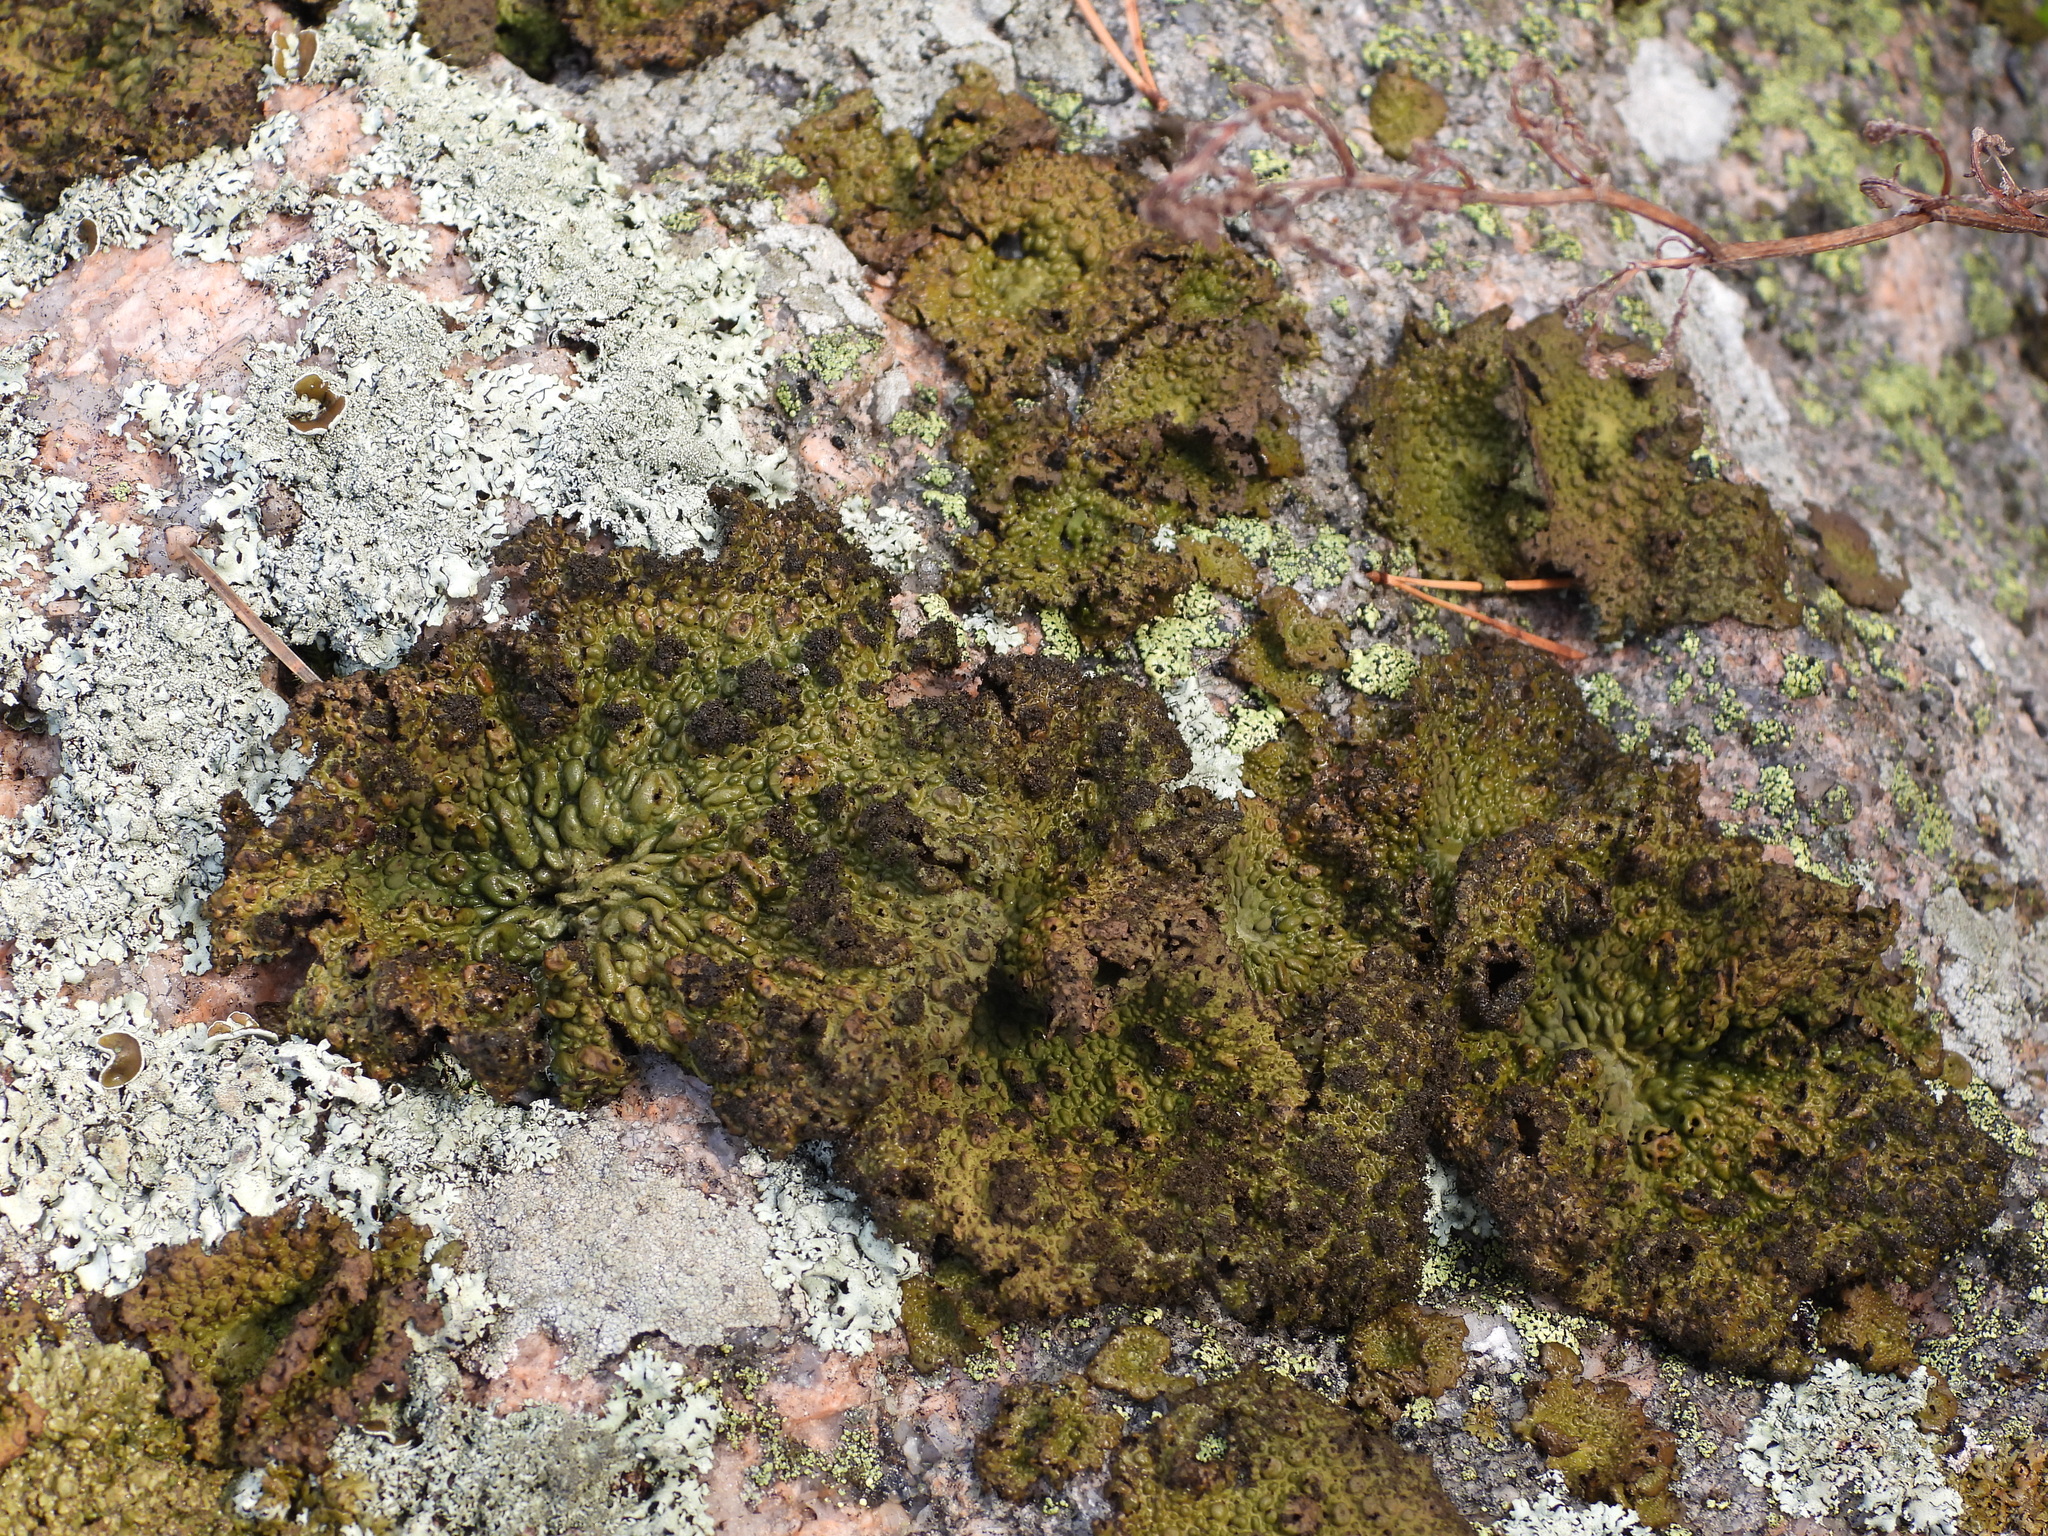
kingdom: Fungi
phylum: Ascomycota
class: Lecanoromycetes
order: Umbilicariales
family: Umbilicariaceae
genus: Lasallia
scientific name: Lasallia pustulata
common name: Blistered toadskin lichen
